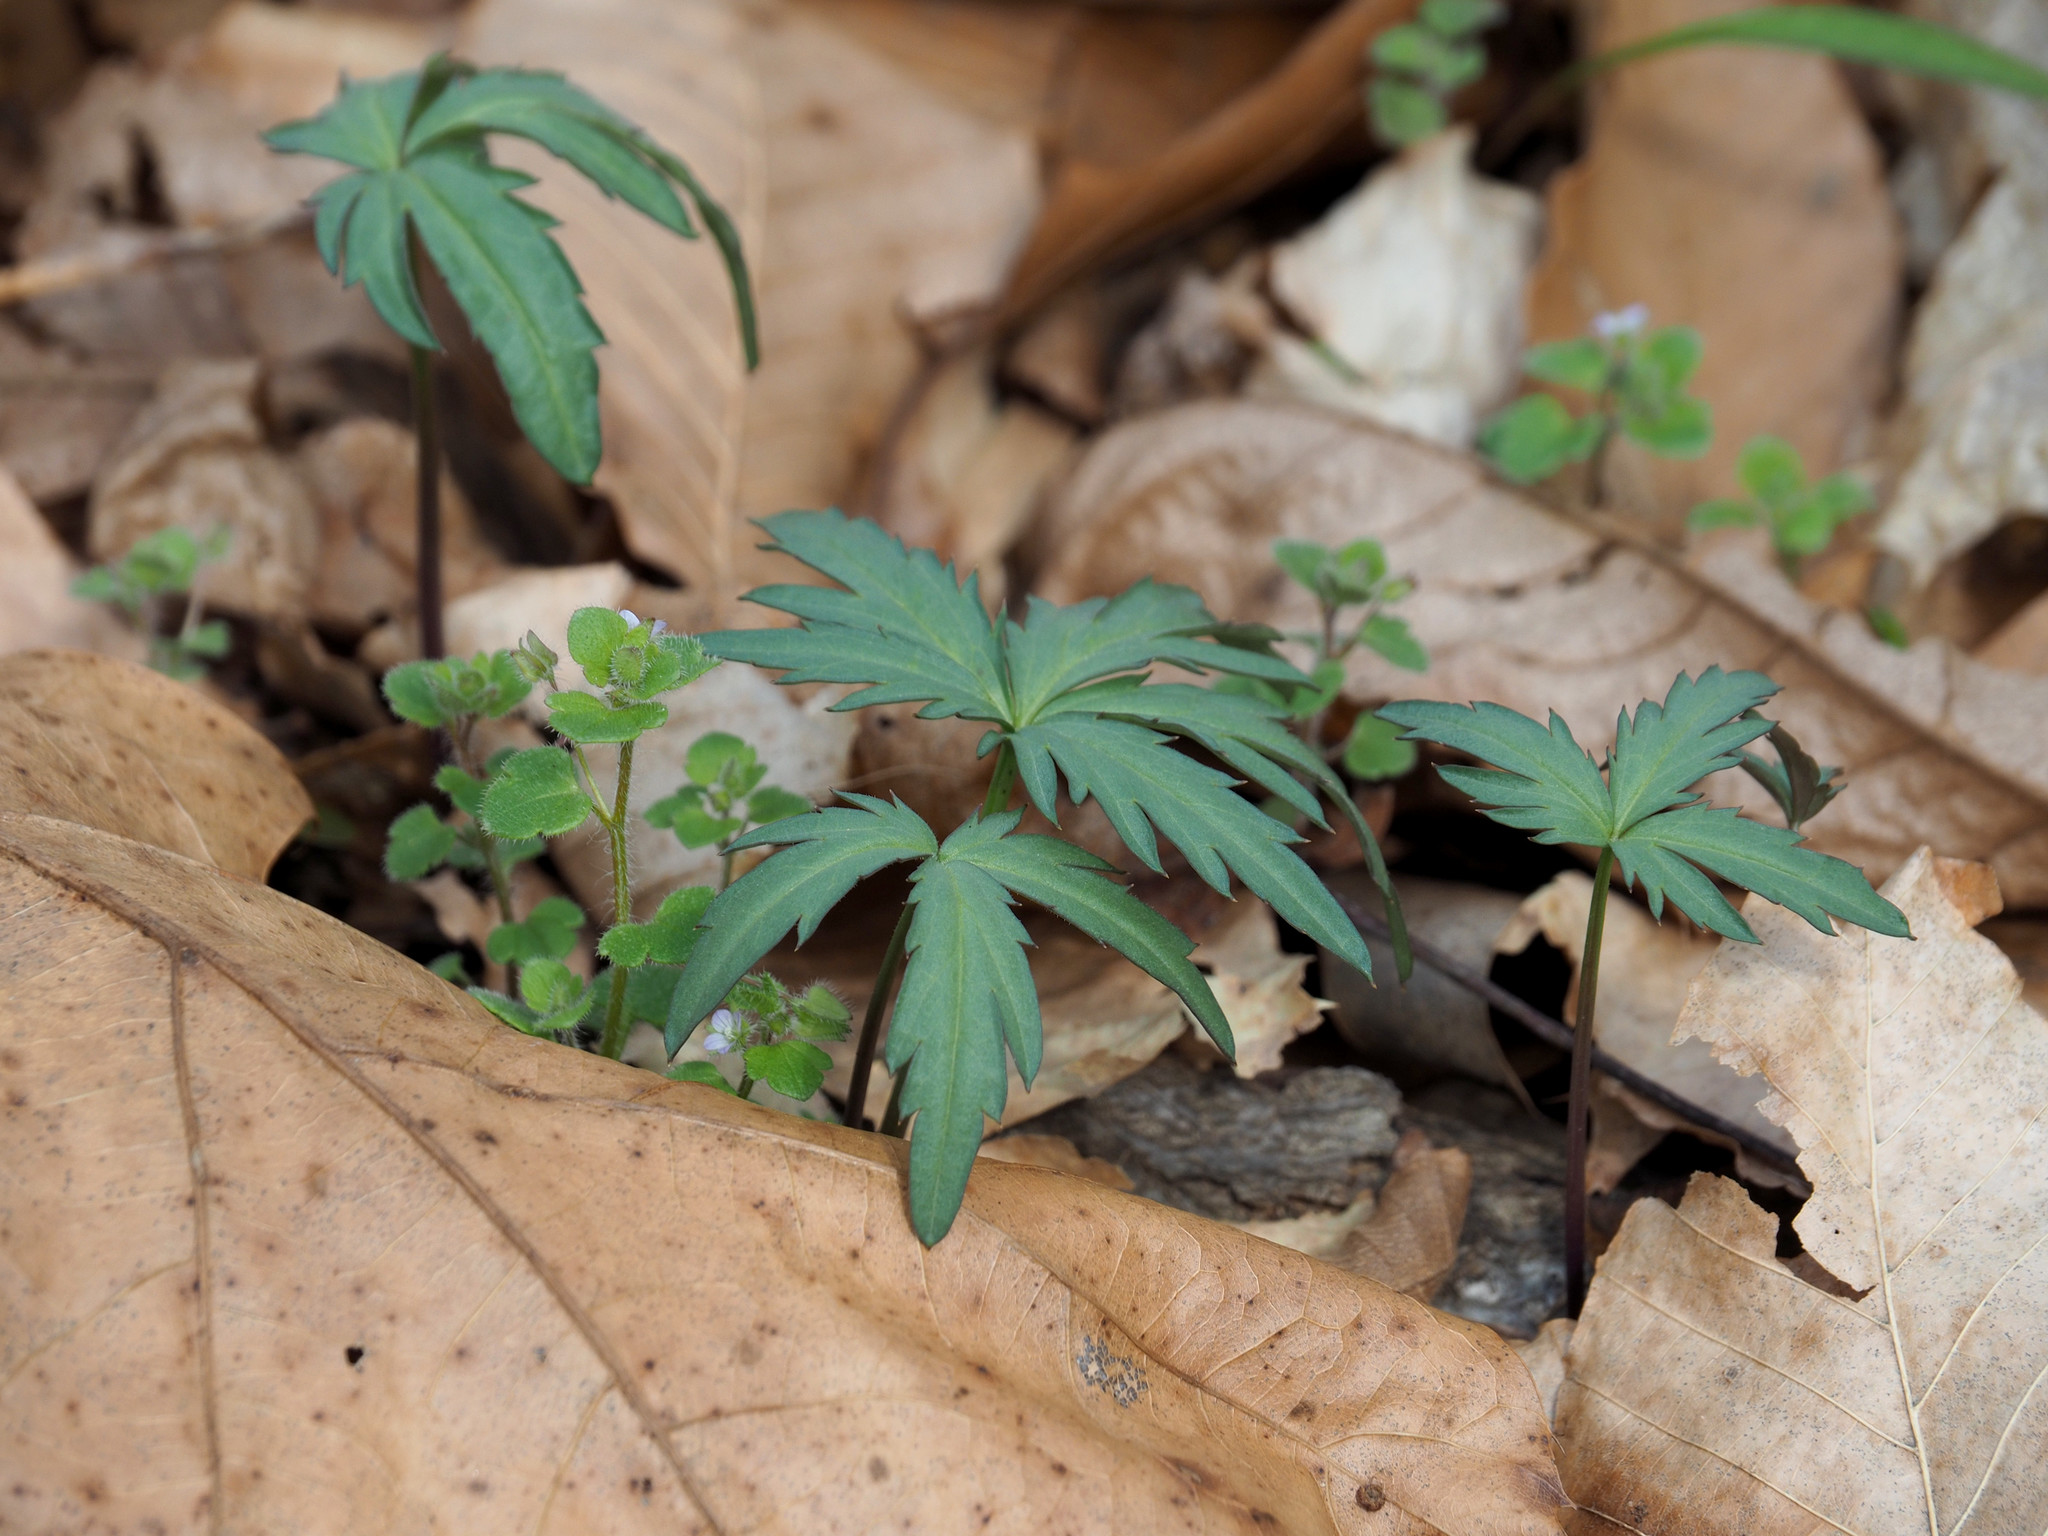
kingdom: Plantae
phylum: Tracheophyta
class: Magnoliopsida
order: Brassicales
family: Brassicaceae
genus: Cardamine
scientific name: Cardamine concatenata
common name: Cut-leaf toothcup
